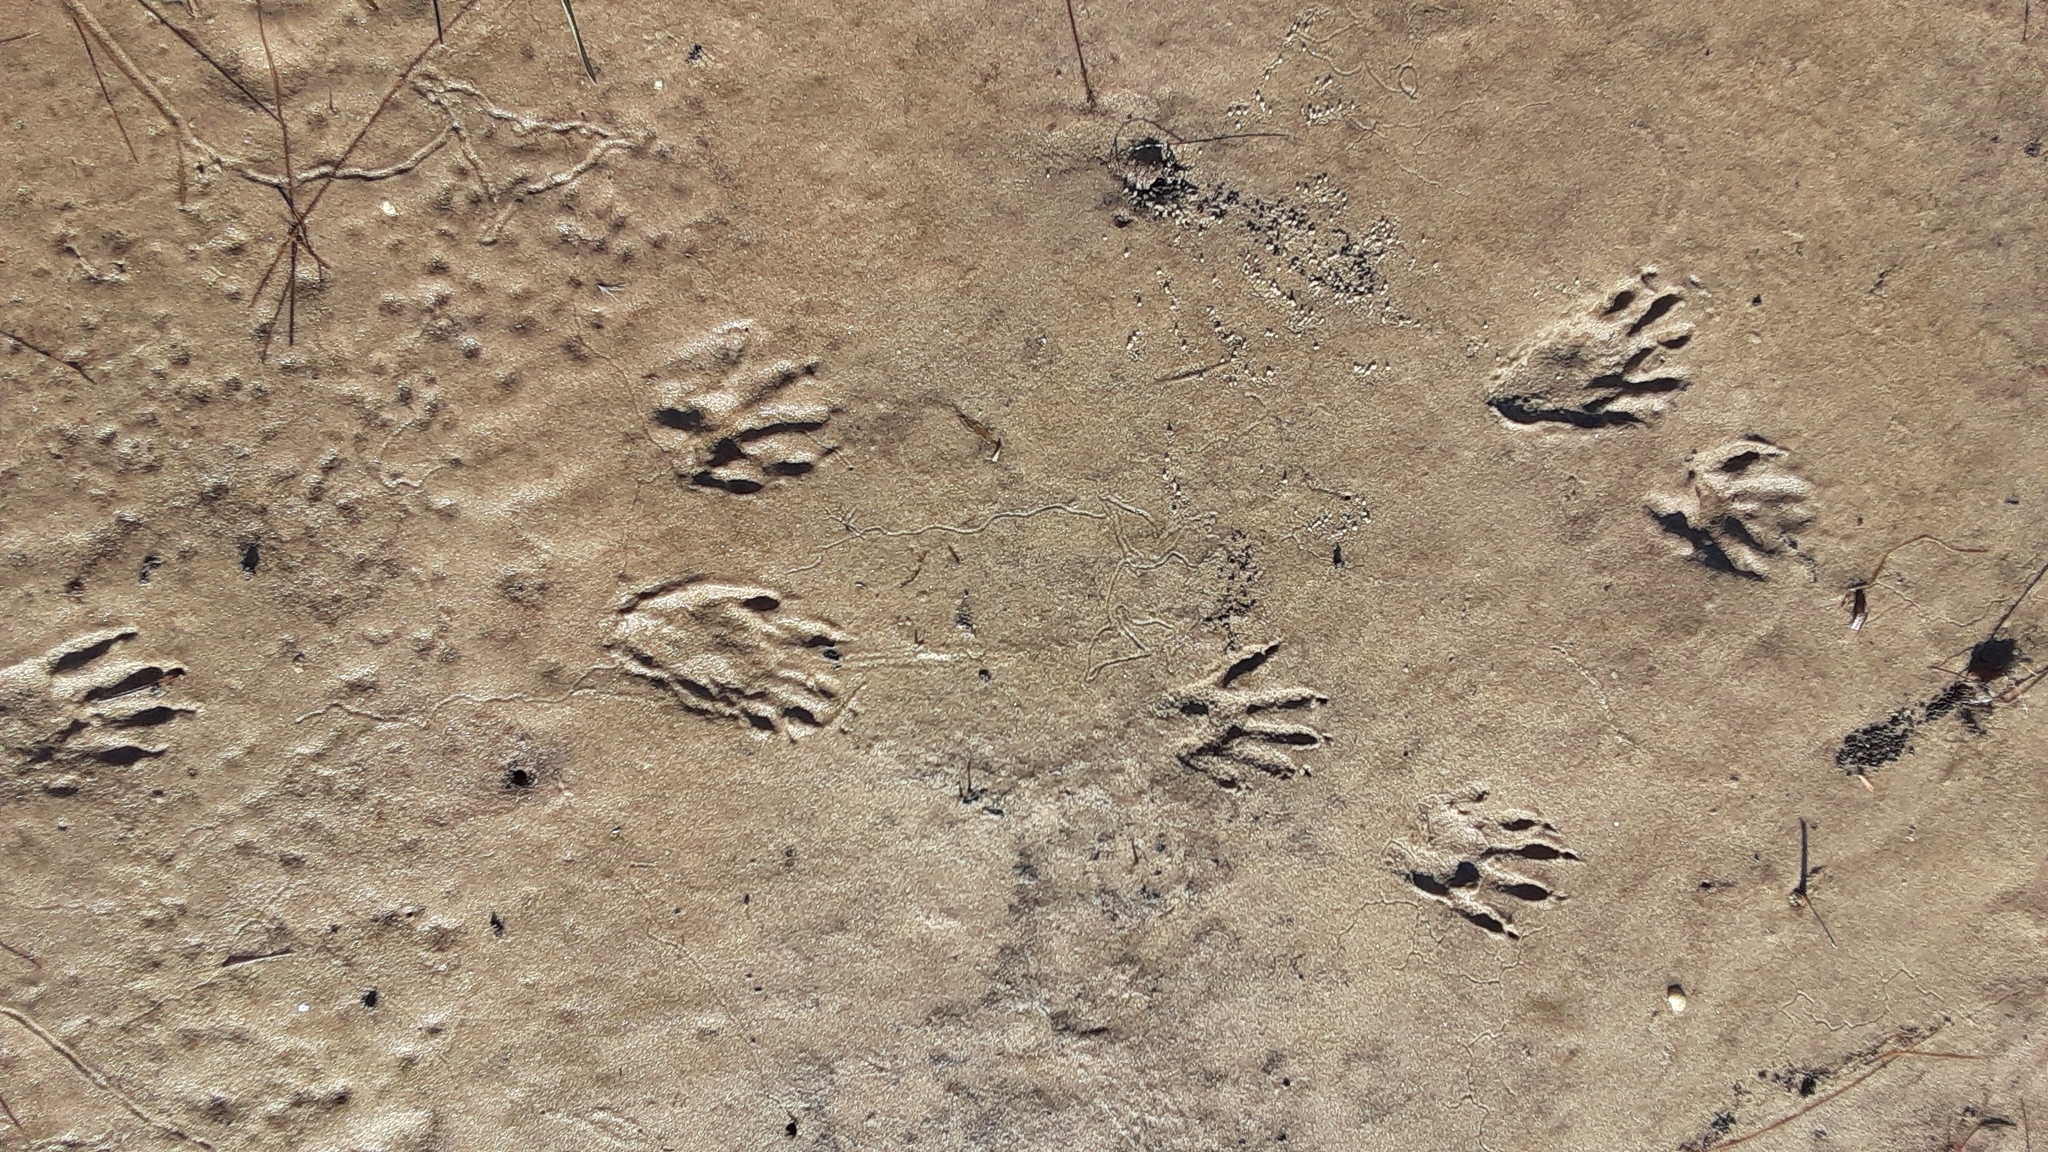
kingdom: Animalia
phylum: Chordata
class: Mammalia
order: Carnivora
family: Procyonidae
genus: Procyon
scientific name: Procyon lotor
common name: Raccoon
